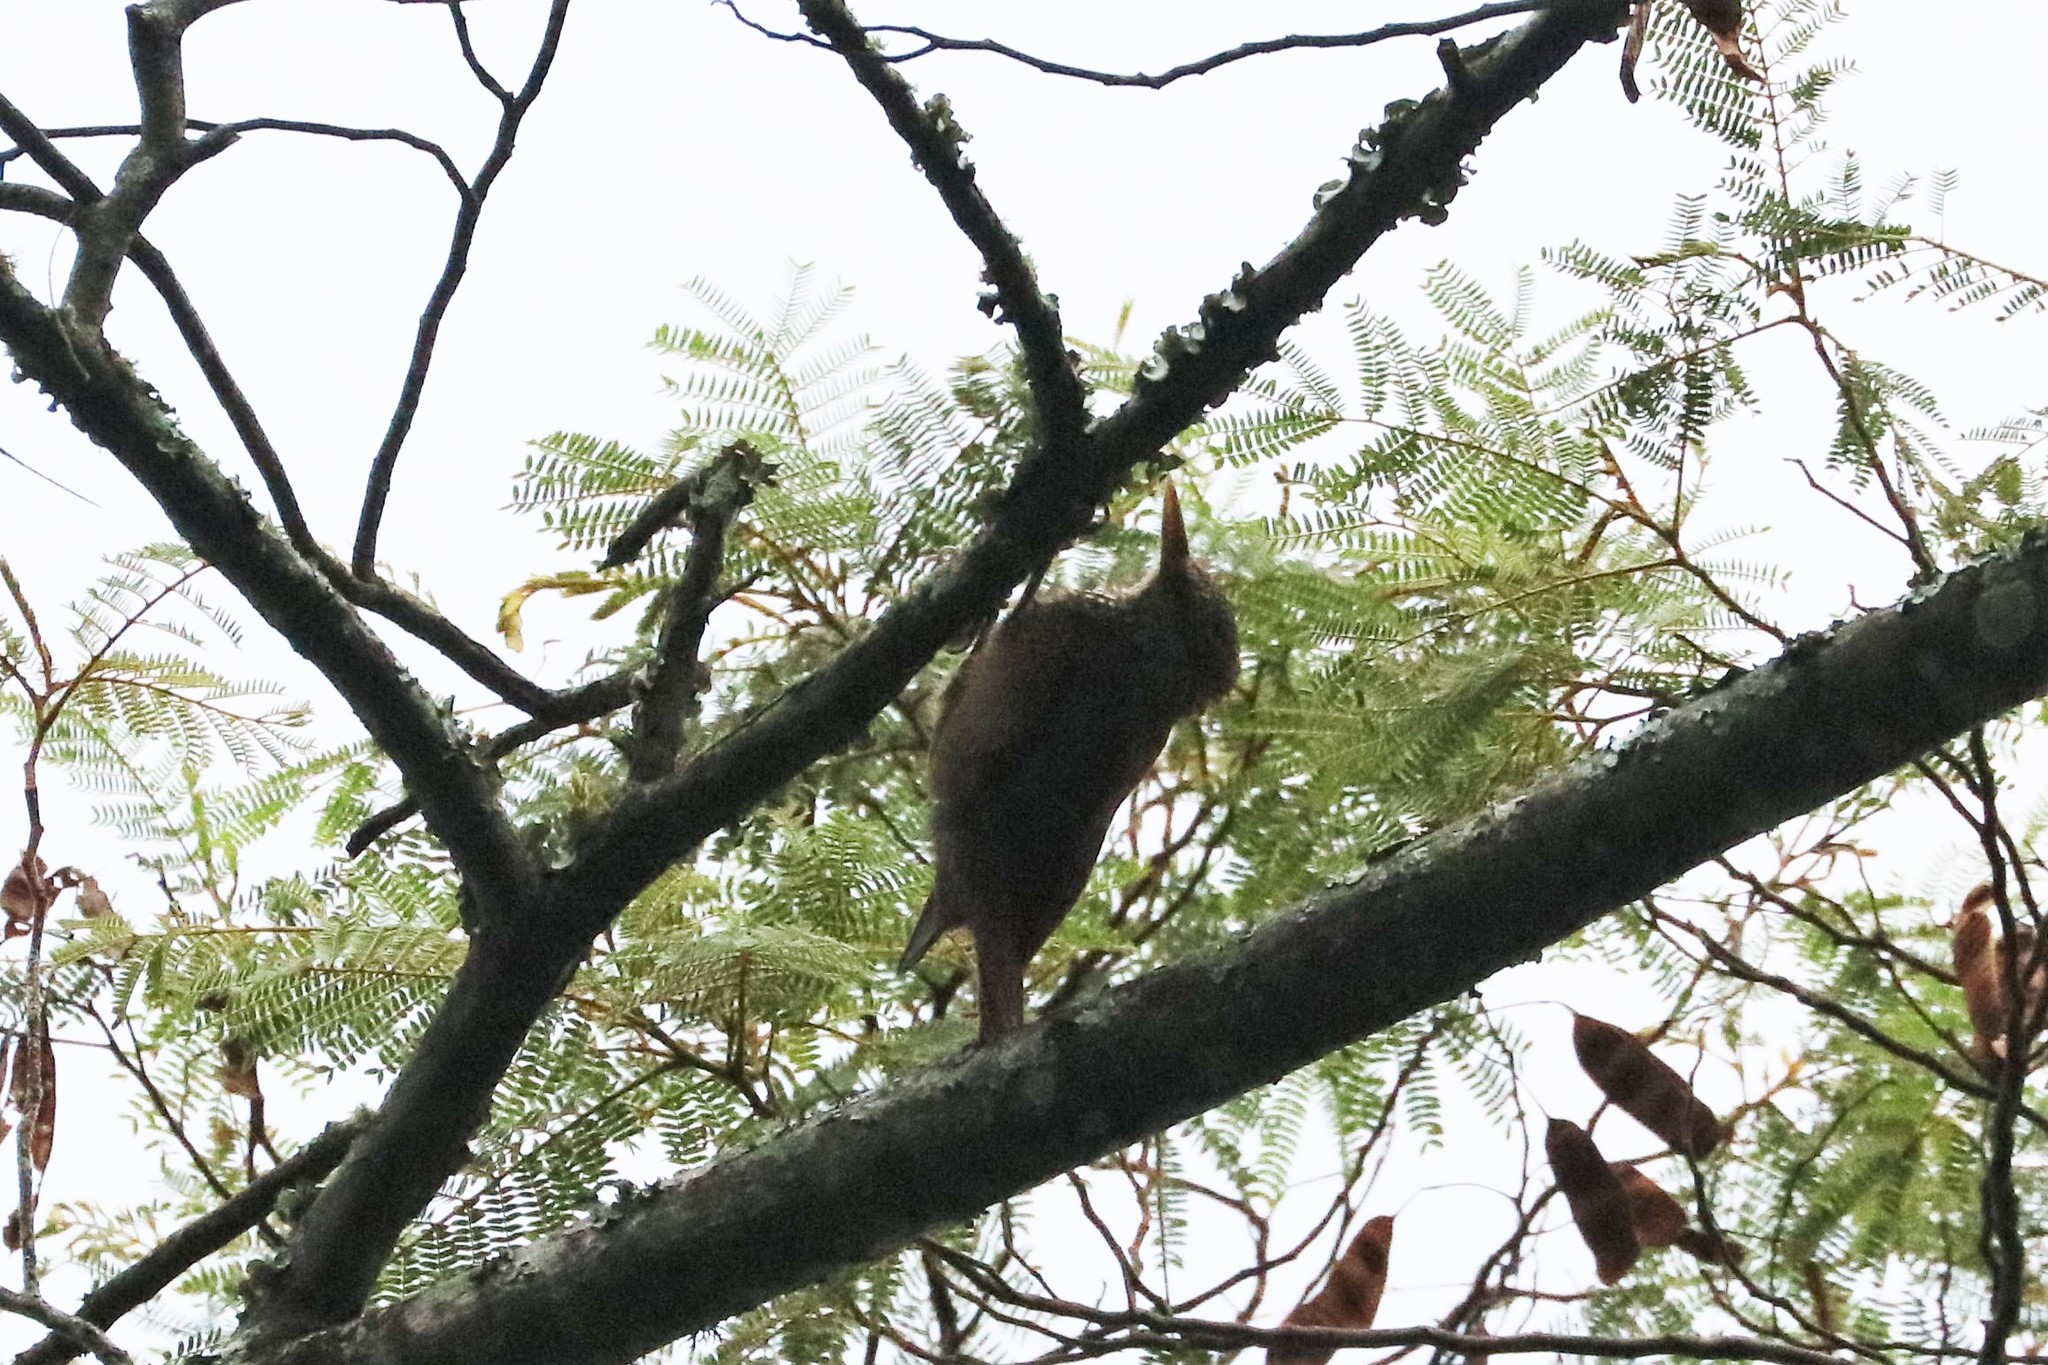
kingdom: Animalia
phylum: Chordata
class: Aves
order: Passeriformes
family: Furnariidae
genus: Xiphorhynchus
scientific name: Xiphorhynchus picus
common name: Straight-billed woodcreeper
